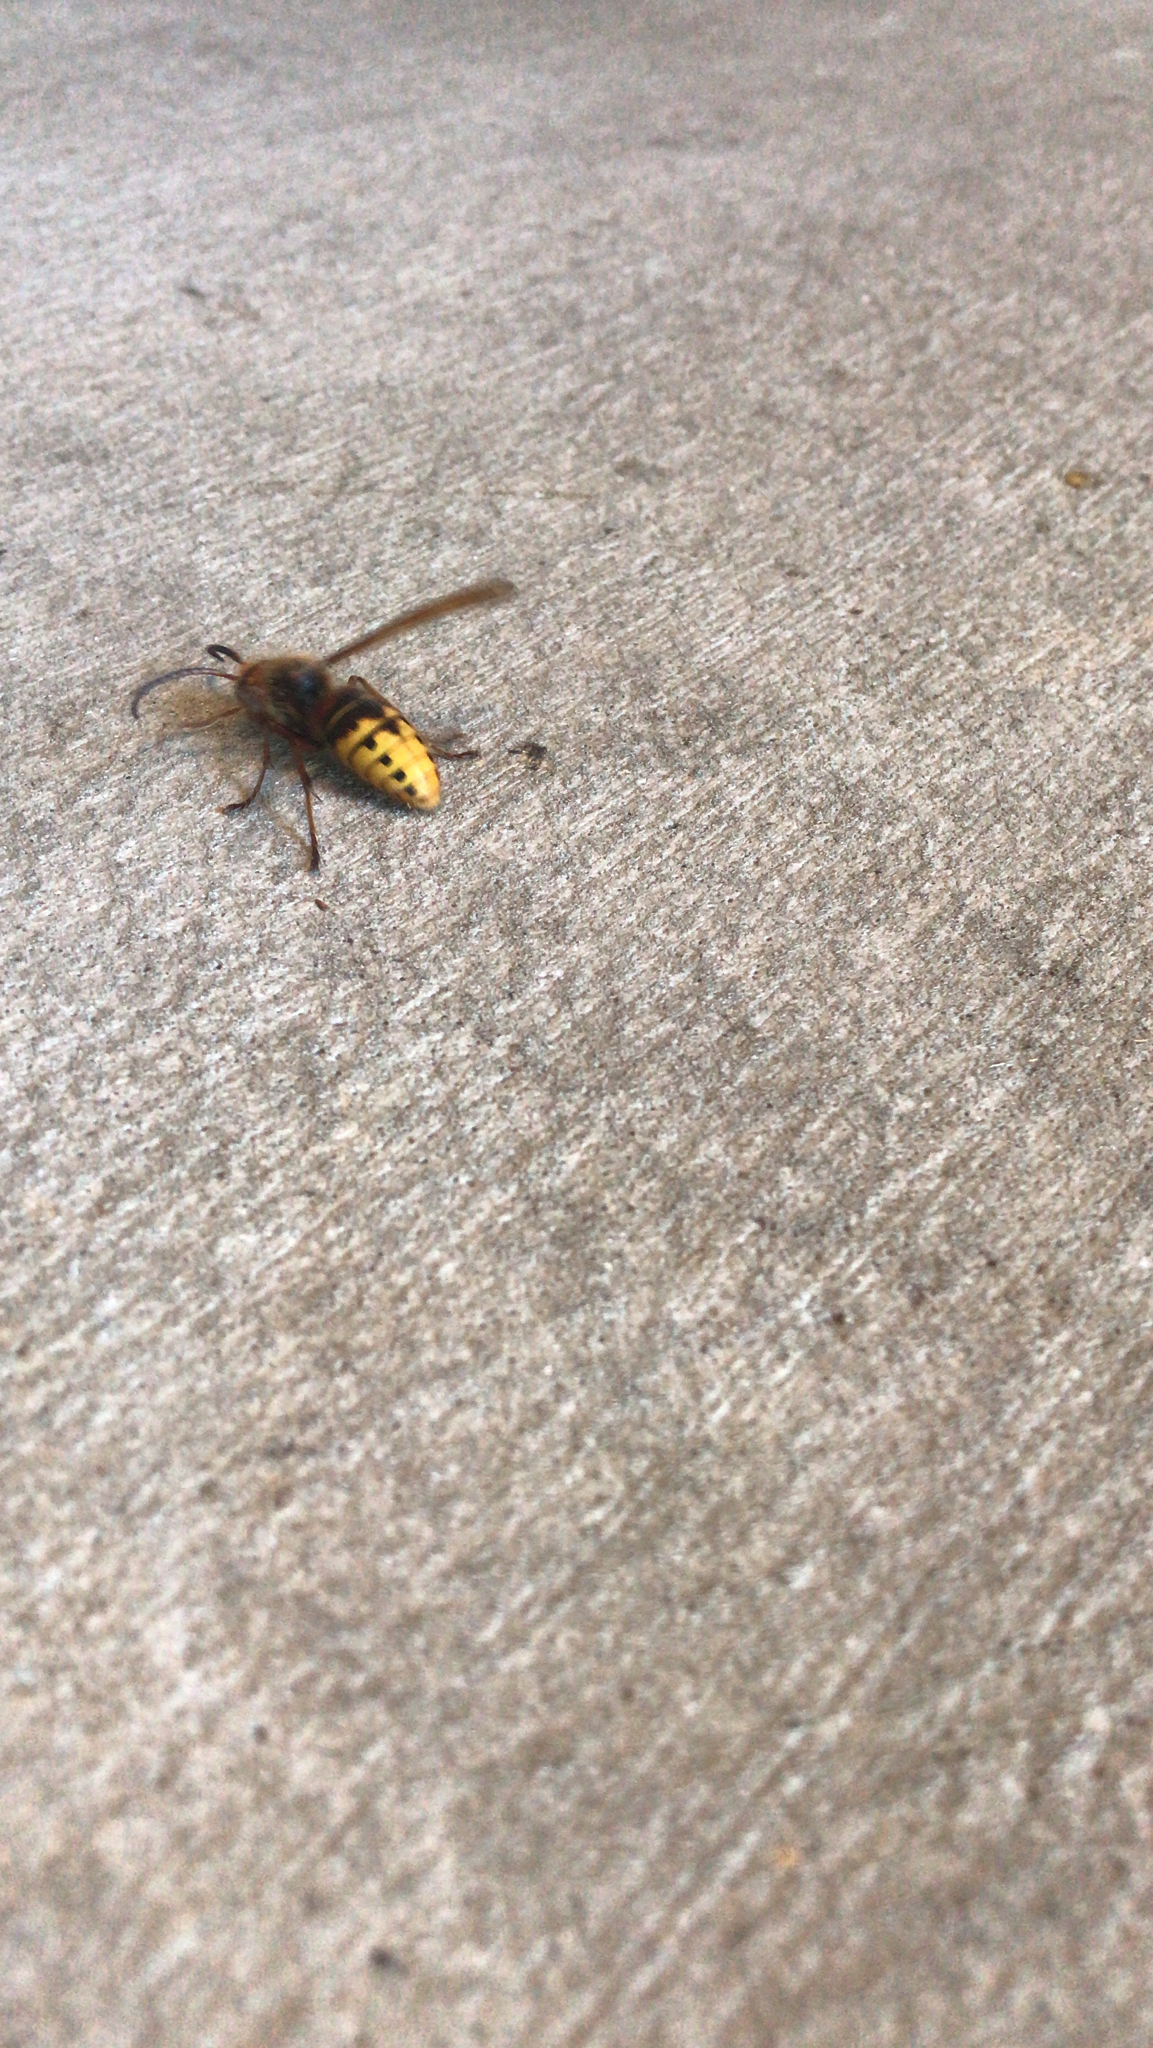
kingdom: Animalia
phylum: Arthropoda
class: Insecta
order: Hymenoptera
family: Vespidae
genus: Vespa
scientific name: Vespa crabro
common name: Hornet
